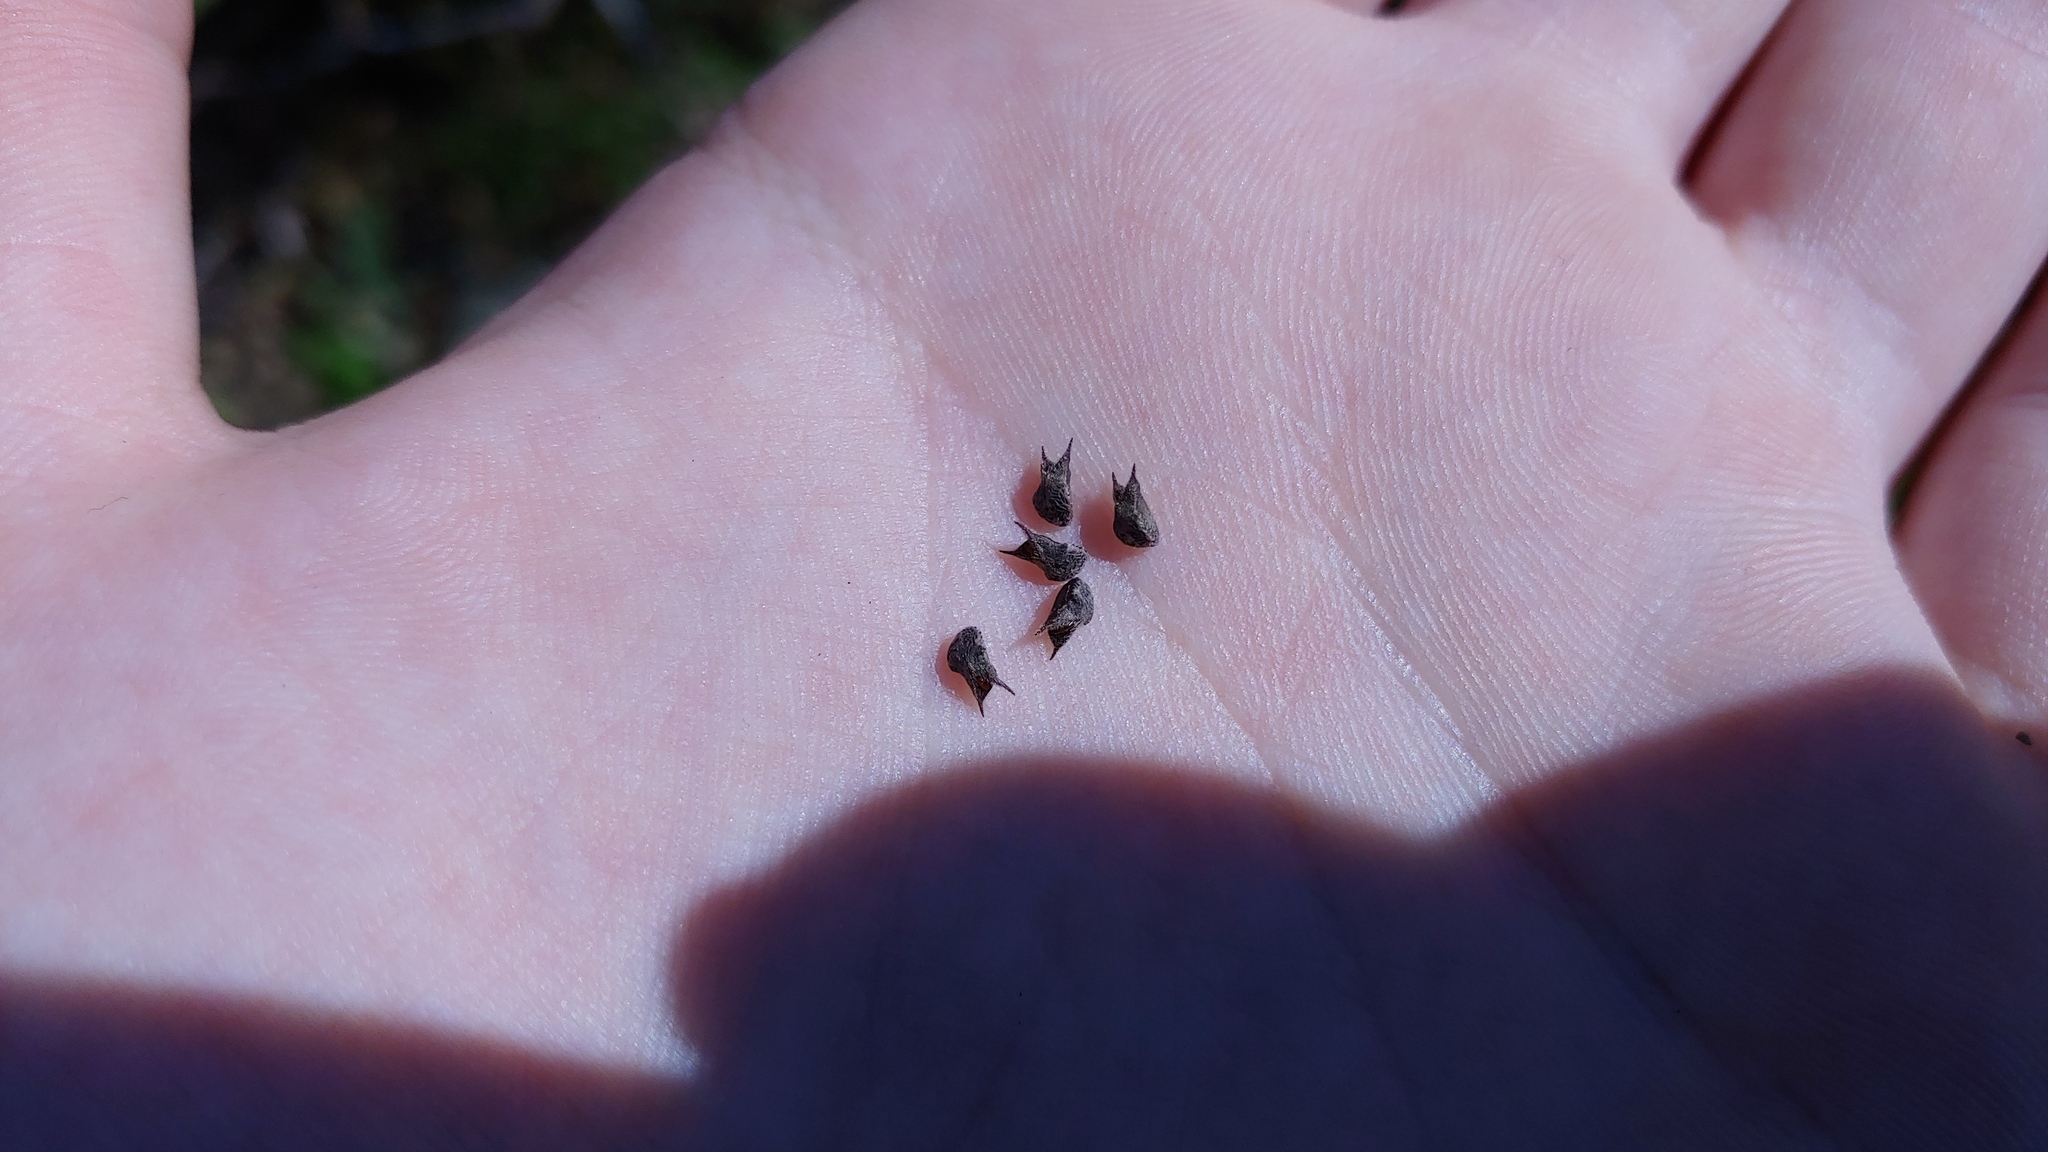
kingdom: Plantae
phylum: Tracheophyta
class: Magnoliopsida
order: Malvales
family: Malvaceae
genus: Sida
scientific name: Sida spinosa
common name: Prickly fanpetals
